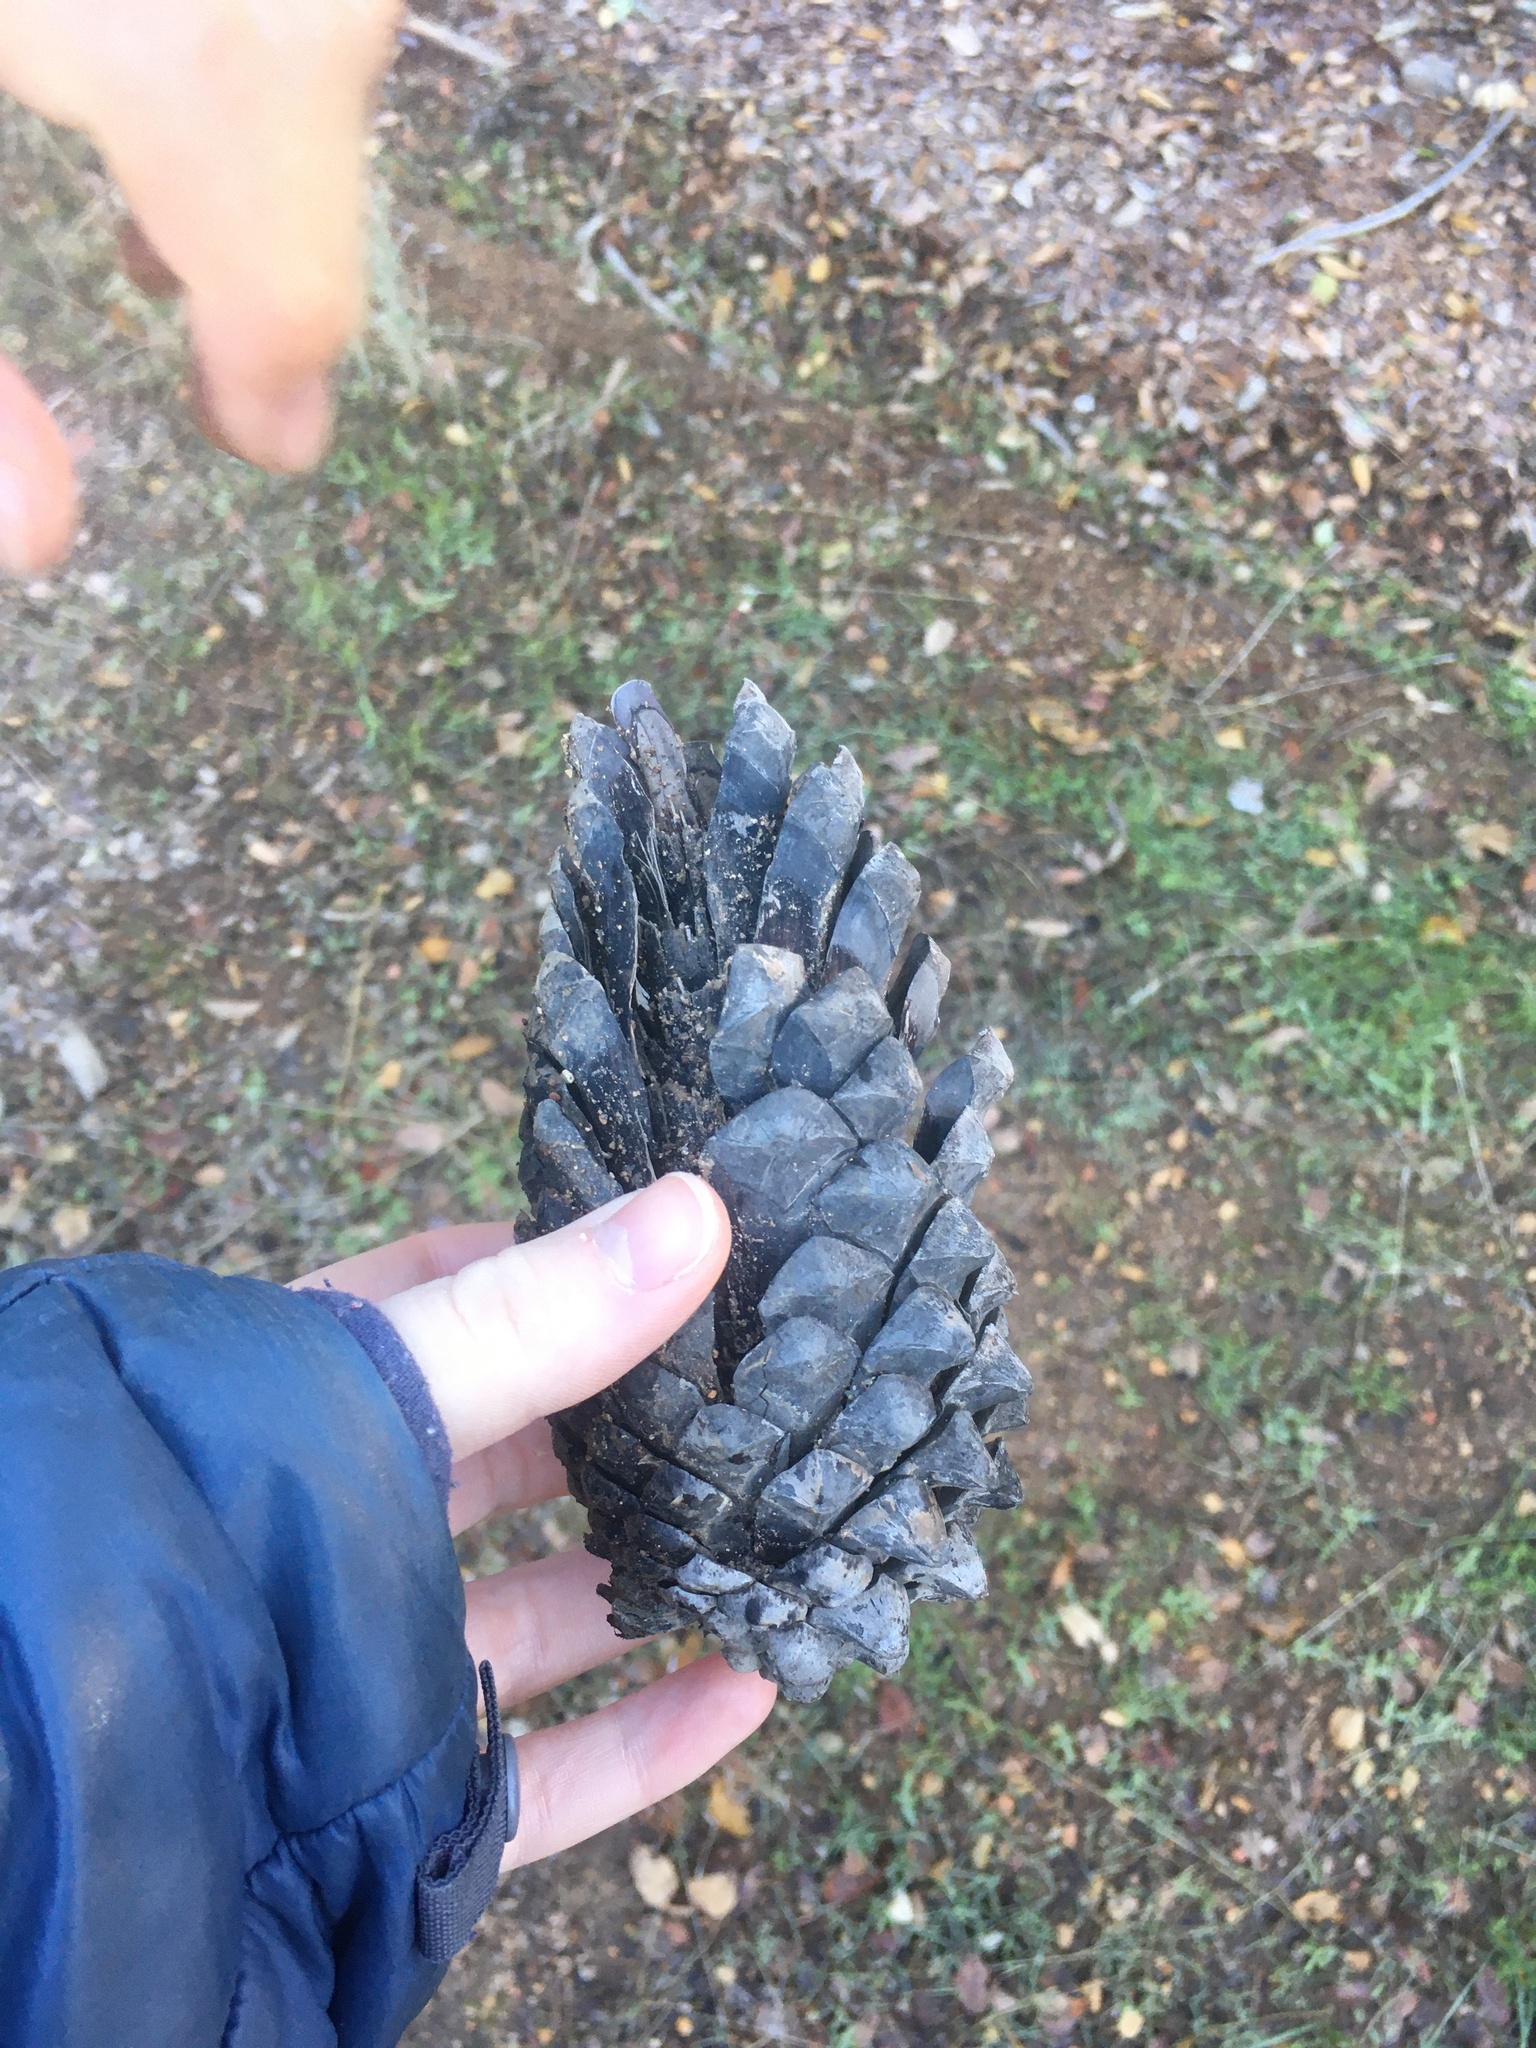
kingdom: Plantae
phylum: Tracheophyta
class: Pinopsida
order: Pinales
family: Pinaceae
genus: Pinus
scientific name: Pinus attenuata
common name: Knobcone pine
